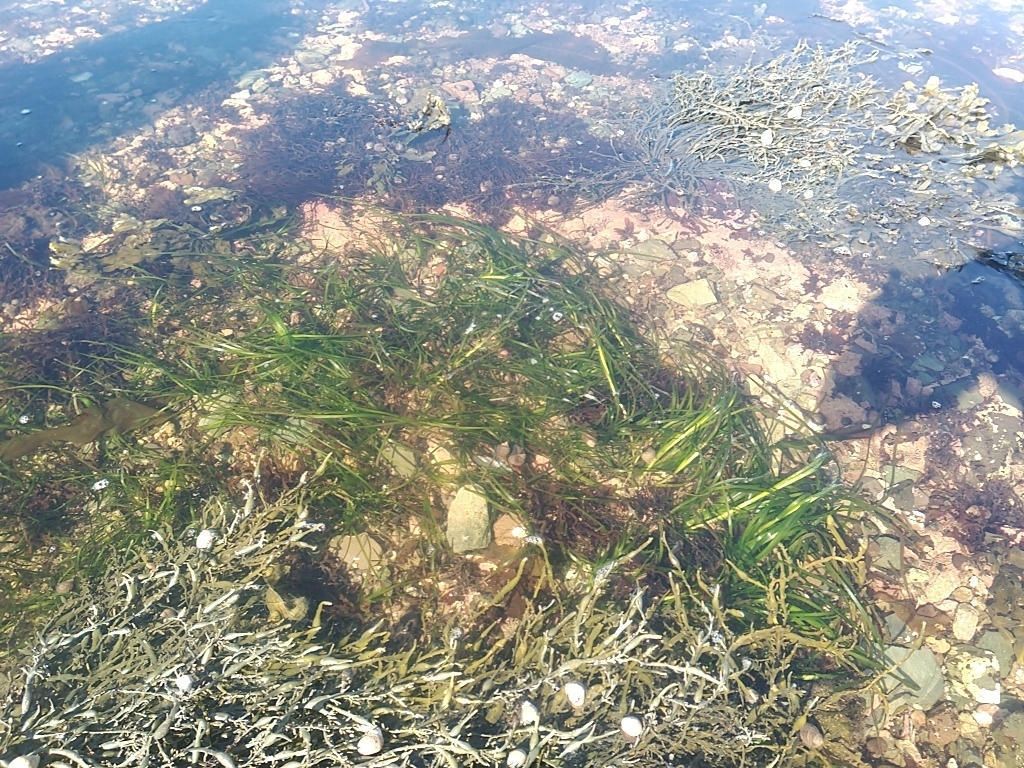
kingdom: Plantae
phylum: Tracheophyta
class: Liliopsida
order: Alismatales
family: Zosteraceae
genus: Zostera
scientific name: Zostera marina
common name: Eelgrass
